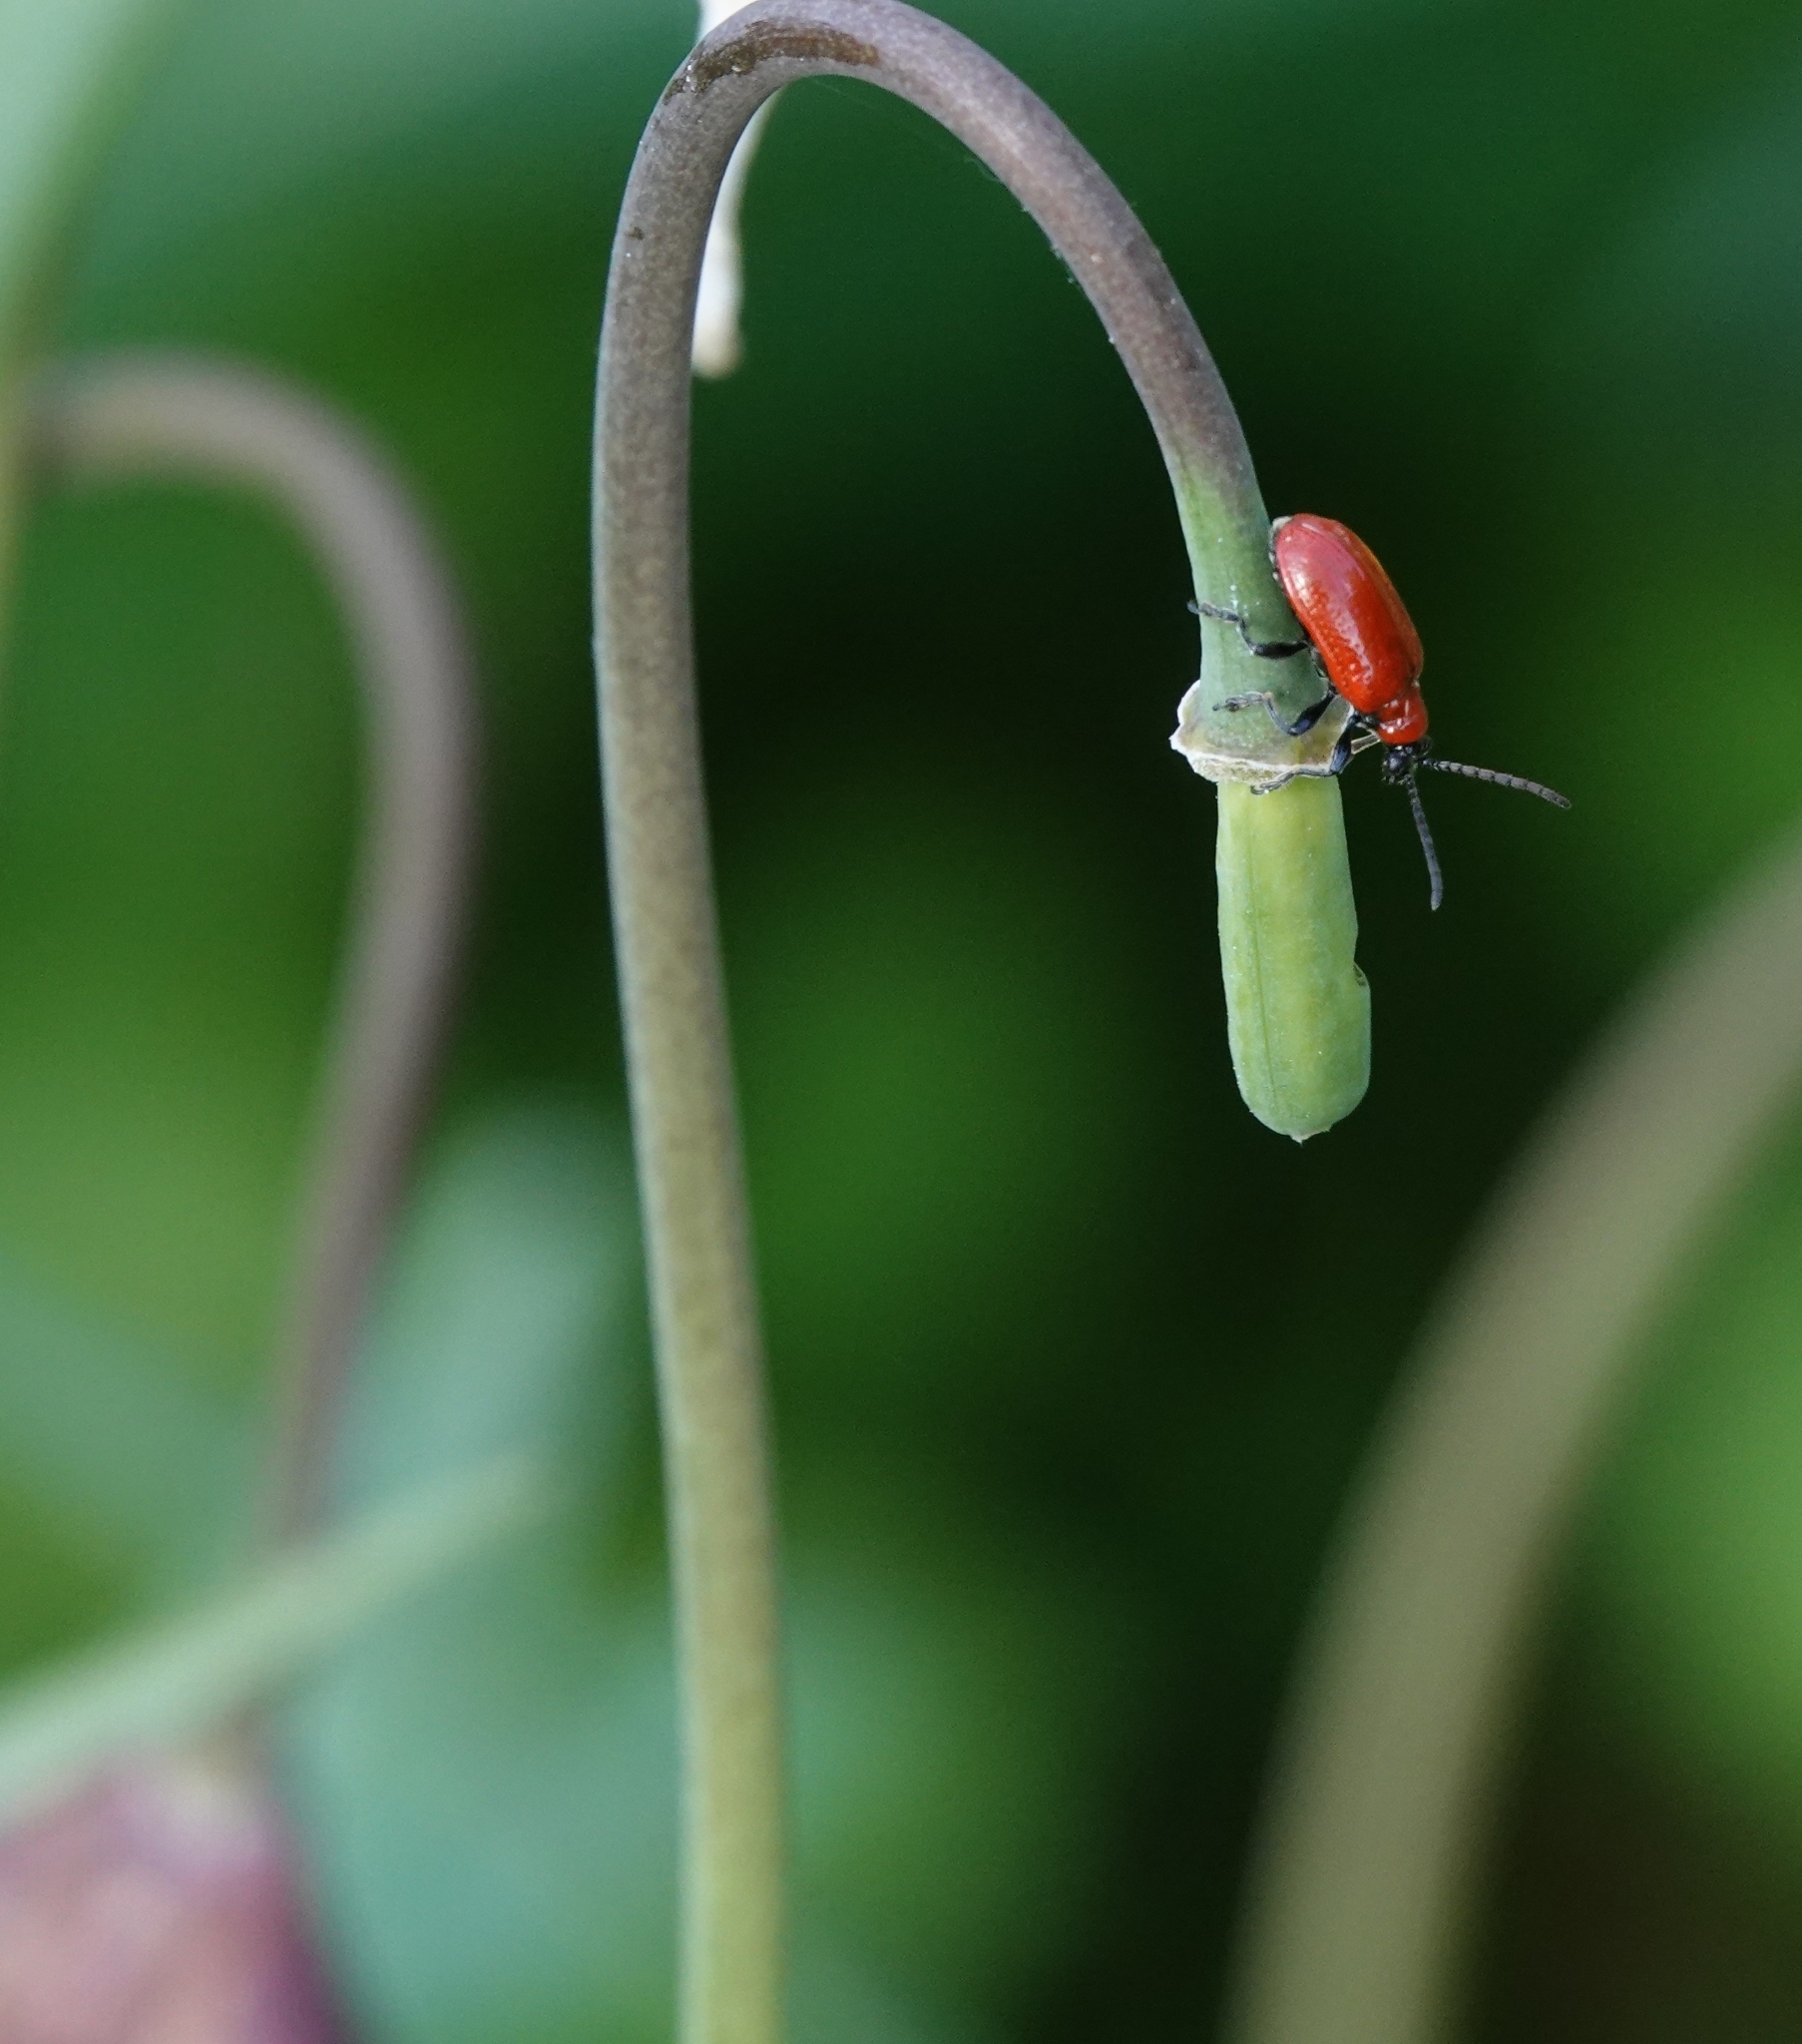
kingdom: Animalia
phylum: Arthropoda
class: Insecta
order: Coleoptera
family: Chrysomelidae
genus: Lilioceris
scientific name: Lilioceris lilii
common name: Lily beetle
